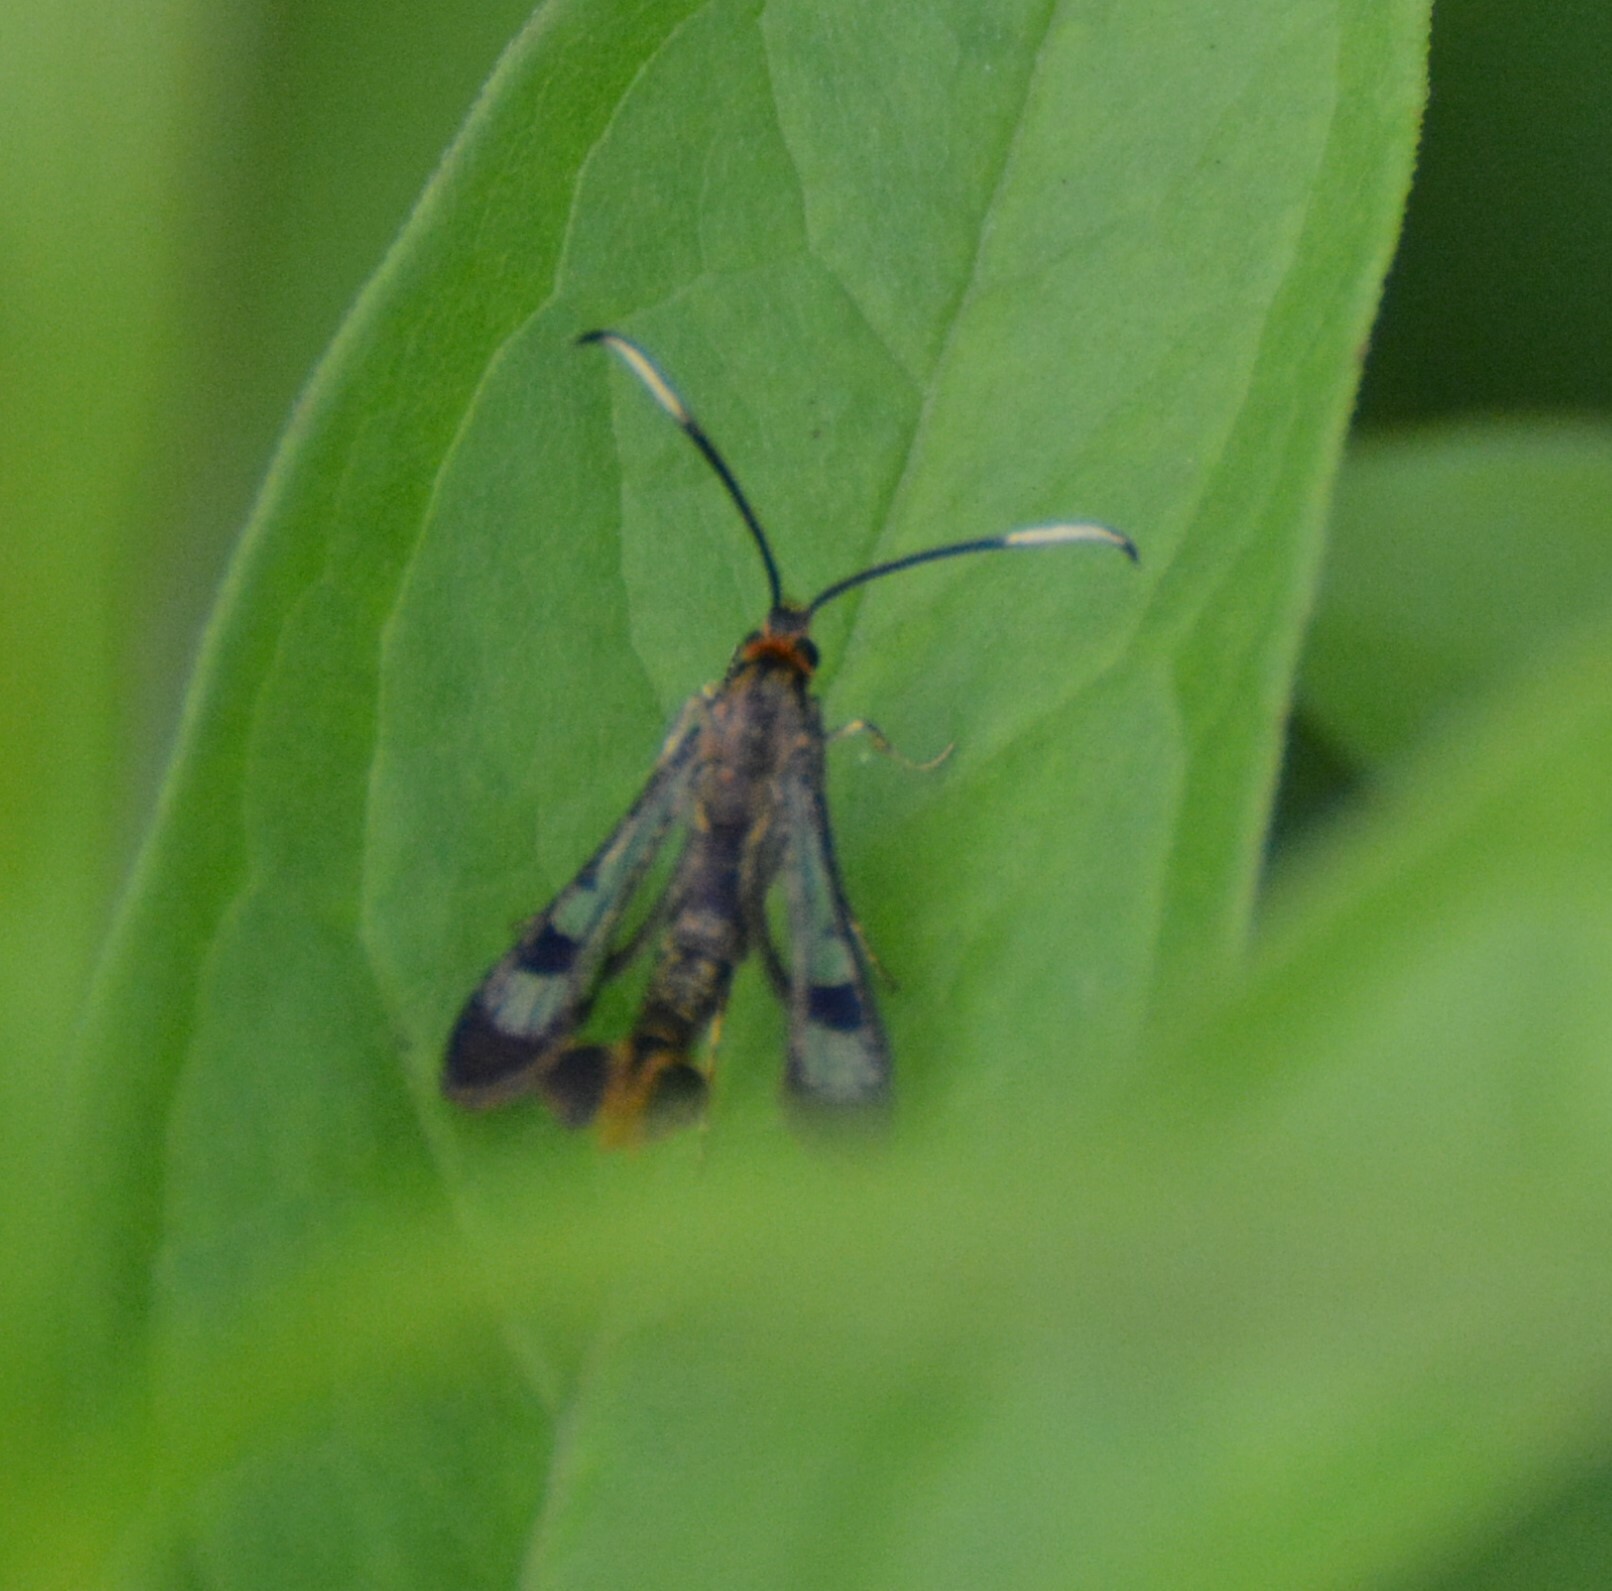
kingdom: Animalia
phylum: Arthropoda
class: Insecta
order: Lepidoptera
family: Sesiidae
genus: Synanthedon
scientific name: Synanthedon acerrubri
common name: Maple clearwing moth
